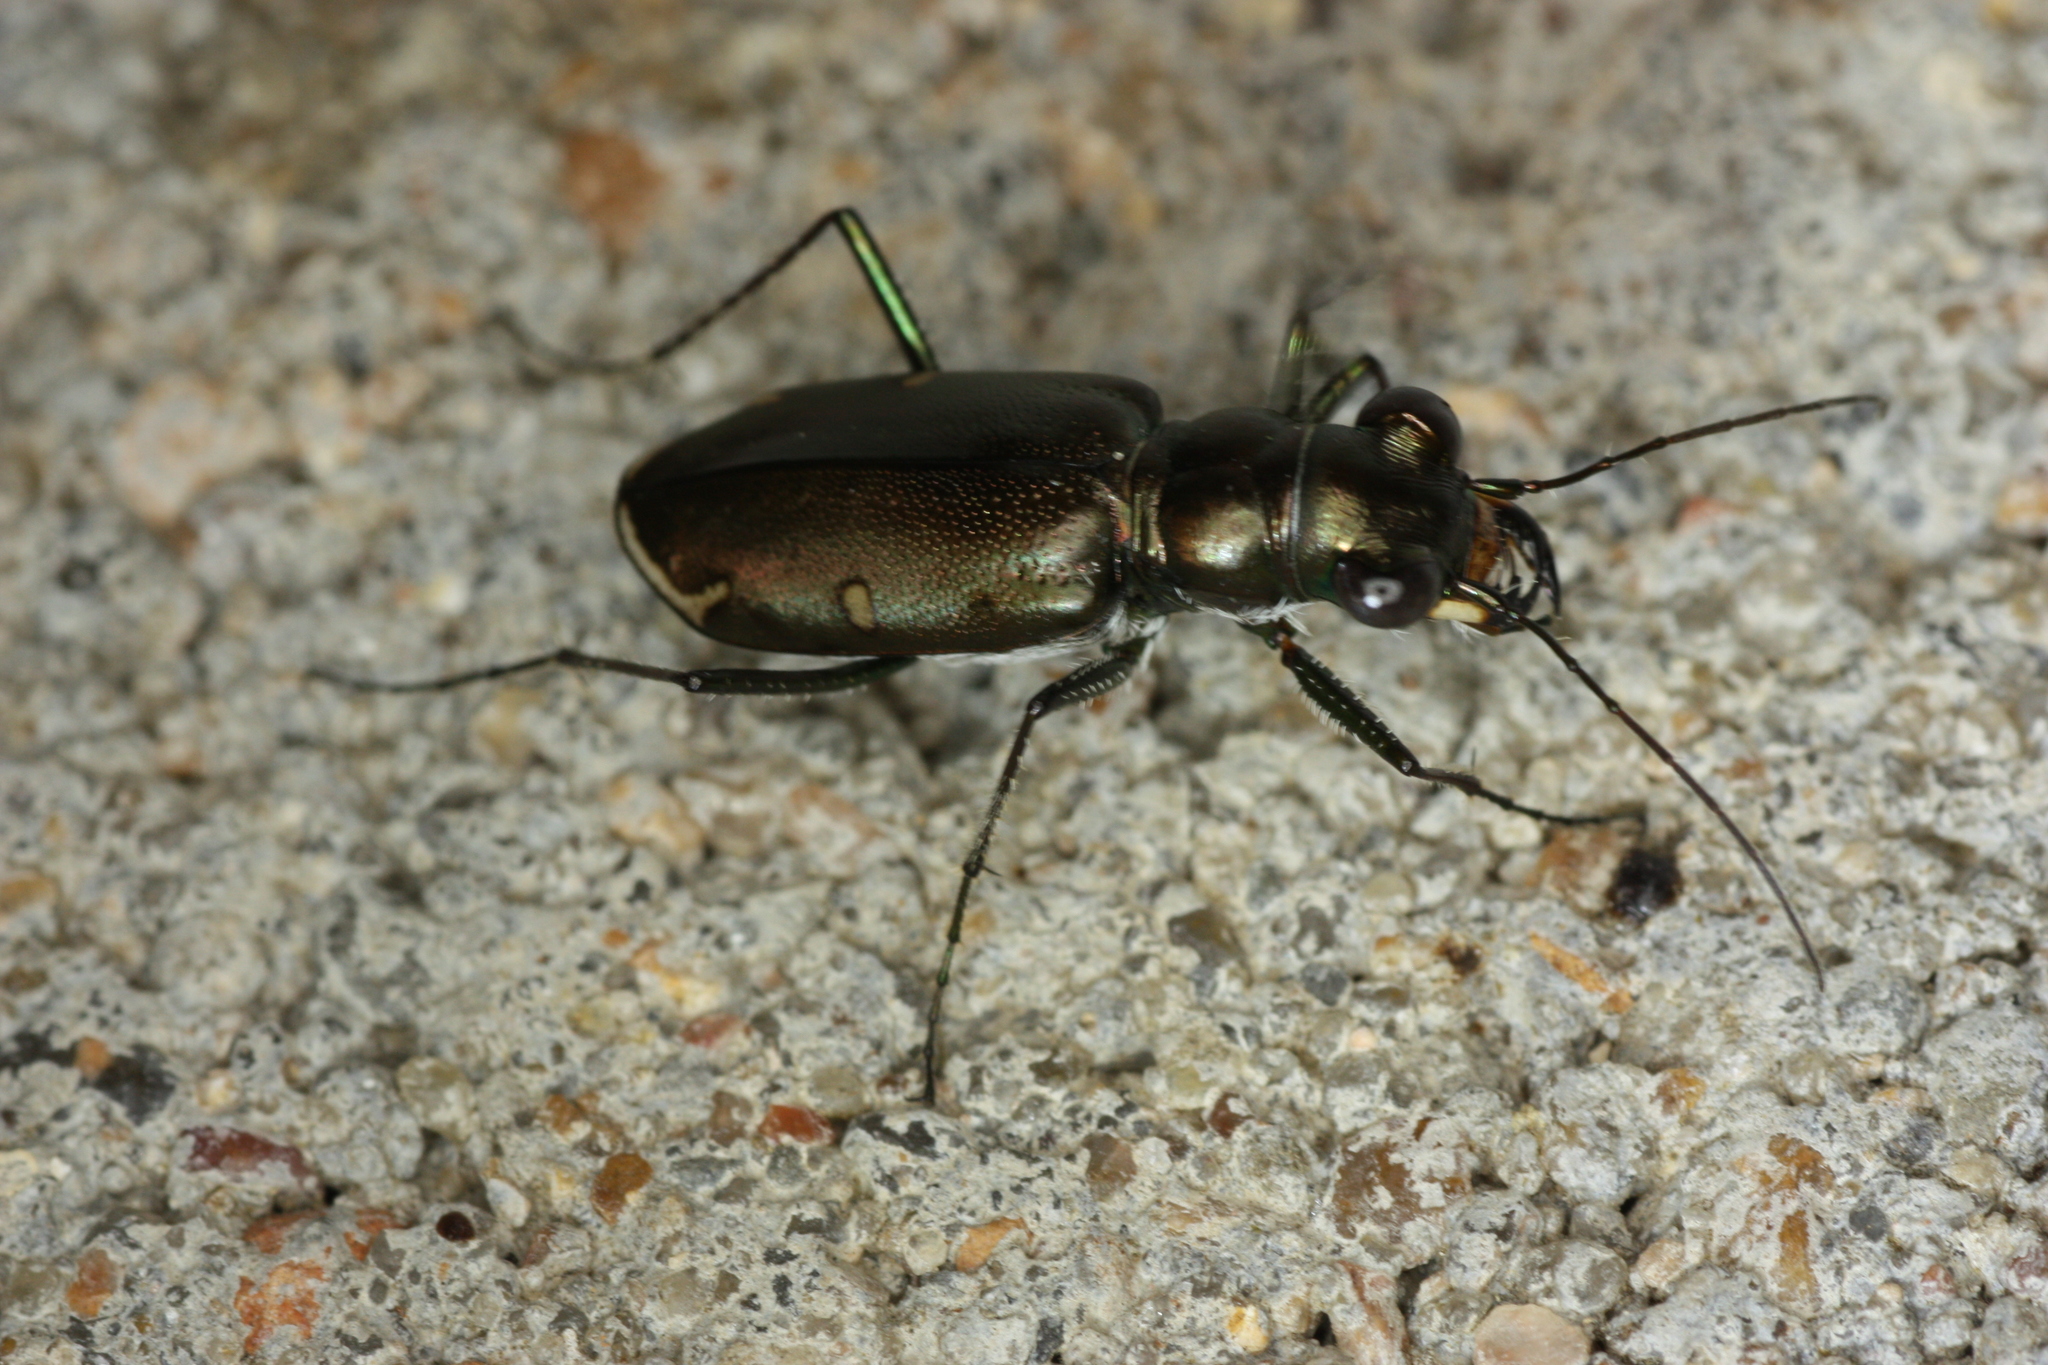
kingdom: Animalia
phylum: Arthropoda
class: Insecta
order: Coleoptera
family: Carabidae
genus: Eunota
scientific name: Eunota severa
